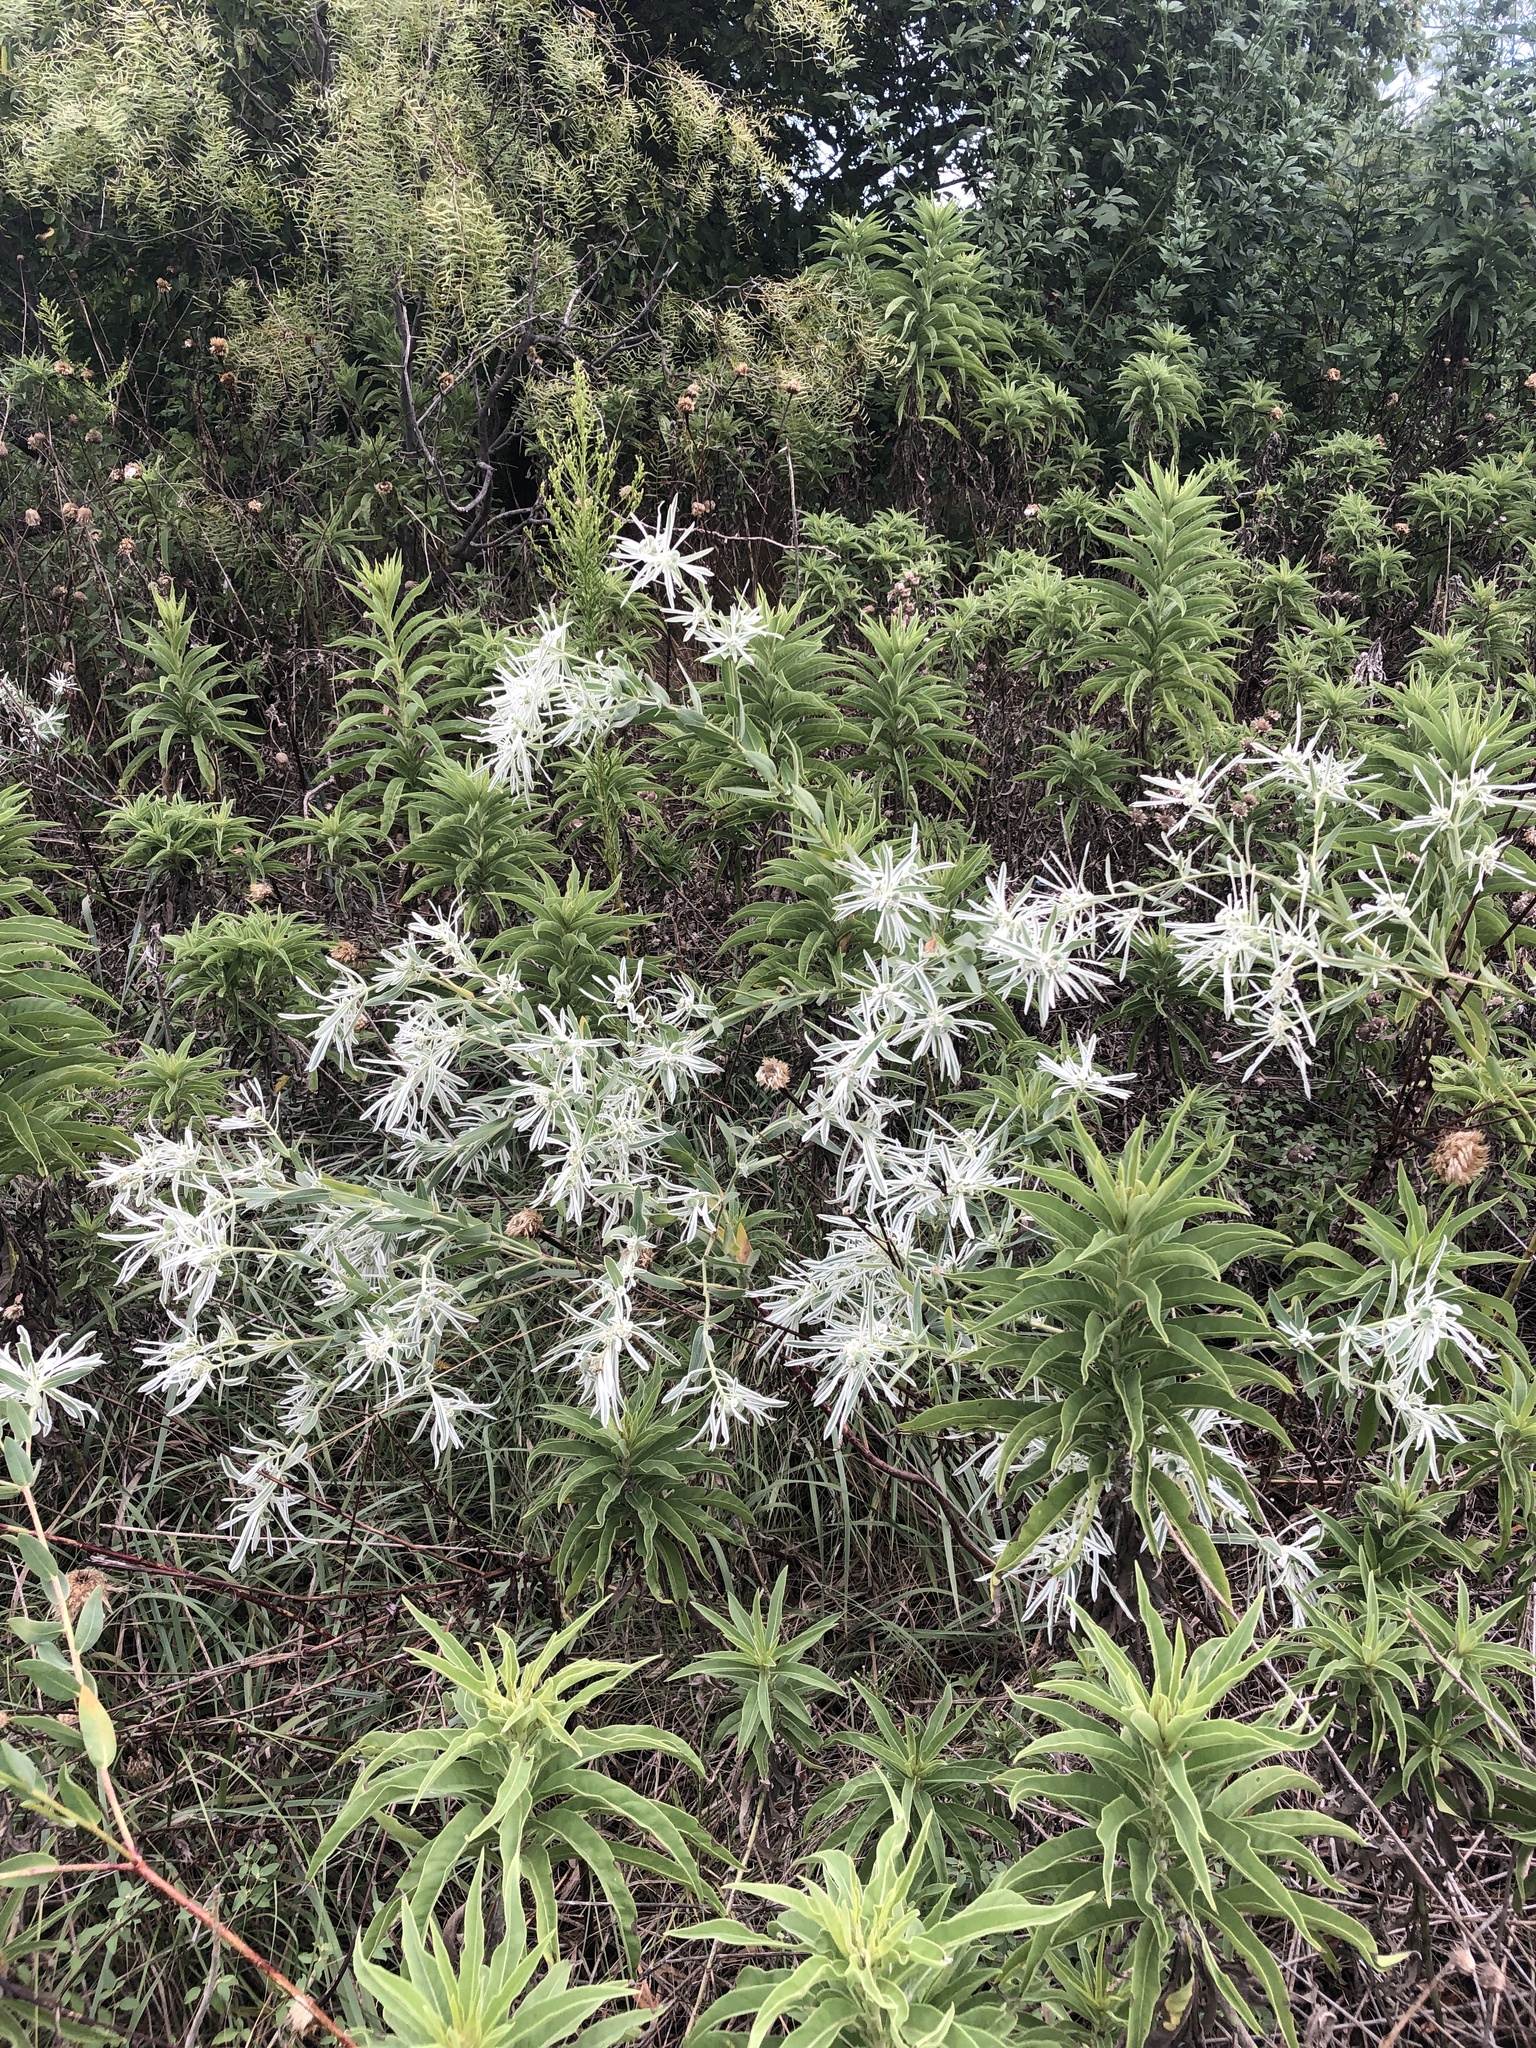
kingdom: Plantae
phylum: Tracheophyta
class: Magnoliopsida
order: Malpighiales
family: Euphorbiaceae
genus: Euphorbia
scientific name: Euphorbia bicolor
